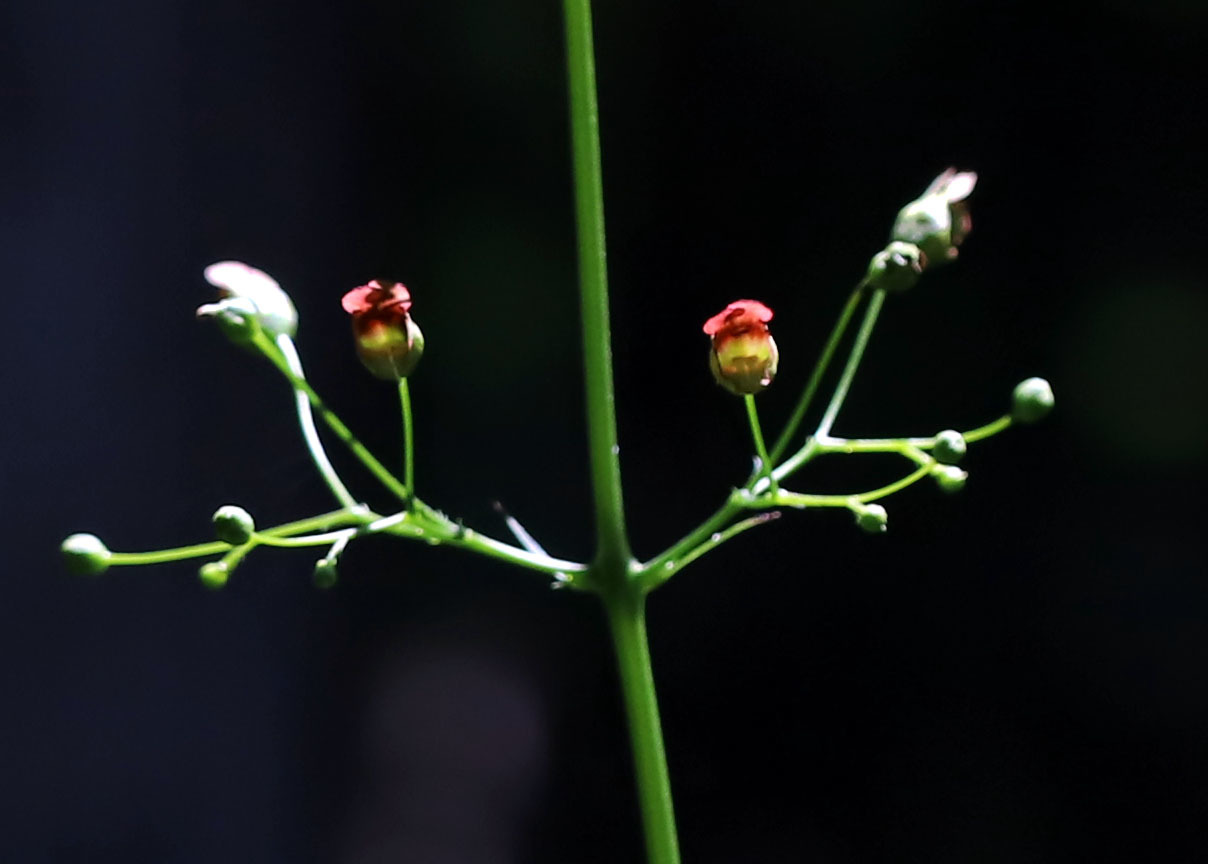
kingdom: Plantae
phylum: Tracheophyta
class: Magnoliopsida
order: Lamiales
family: Scrophulariaceae
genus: Scrophularia
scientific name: Scrophularia marilandica
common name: Eastern figwort
